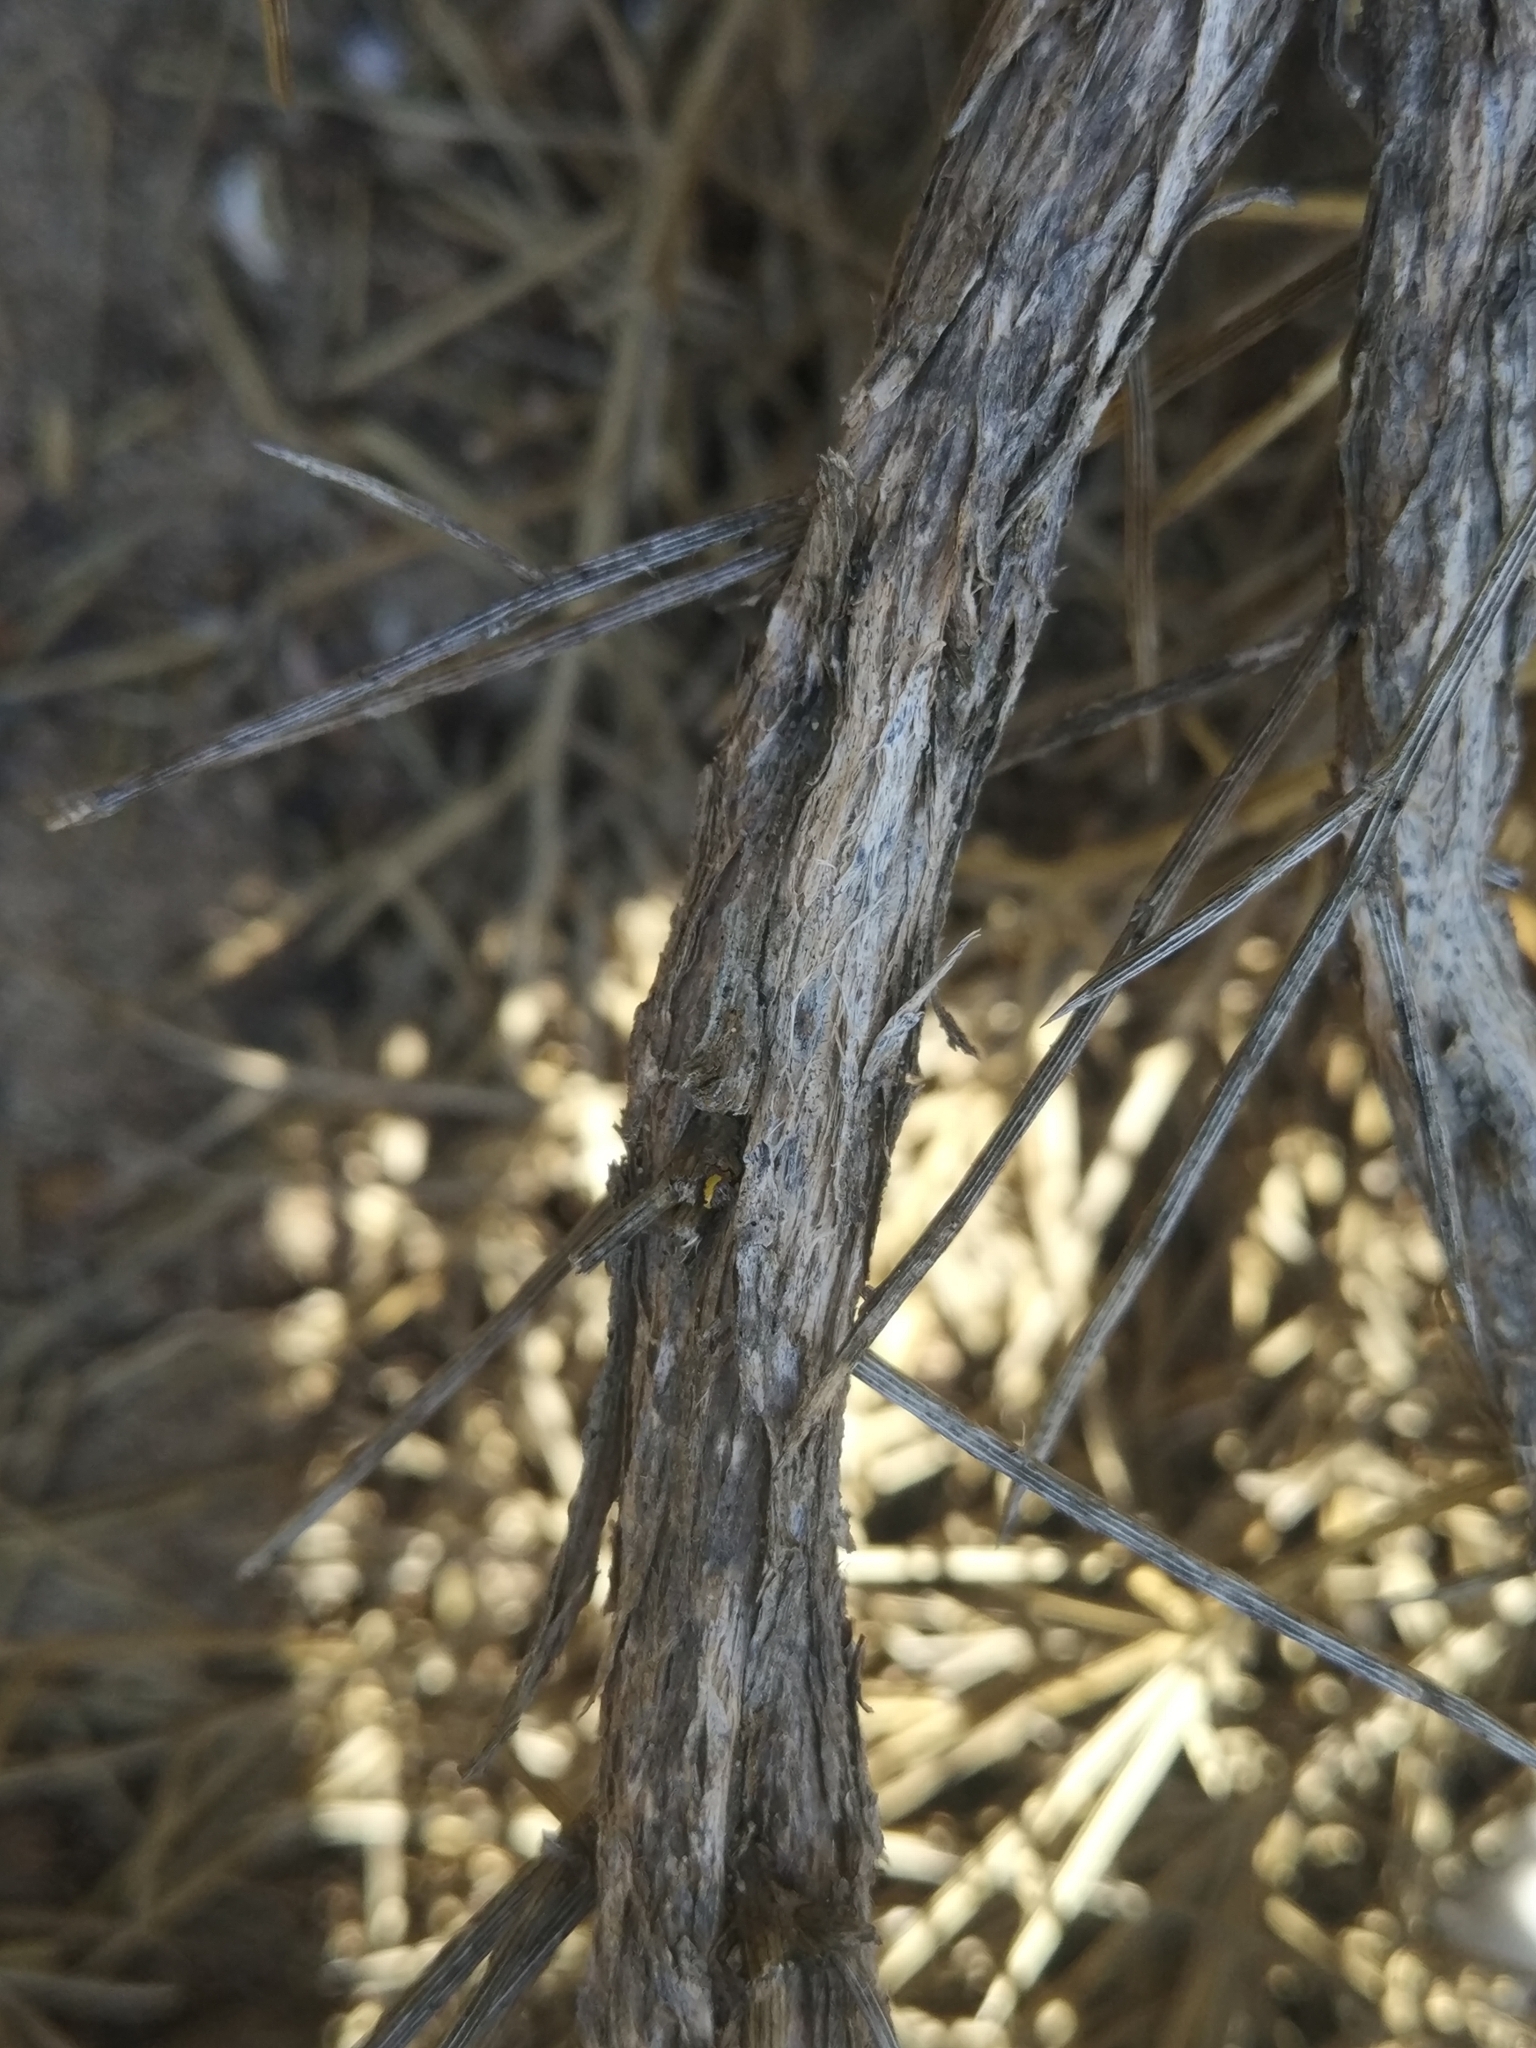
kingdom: Plantae
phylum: Tracheophyta
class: Magnoliopsida
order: Fabales
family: Fabaceae
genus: Genista
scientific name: Genista acanthoclada
